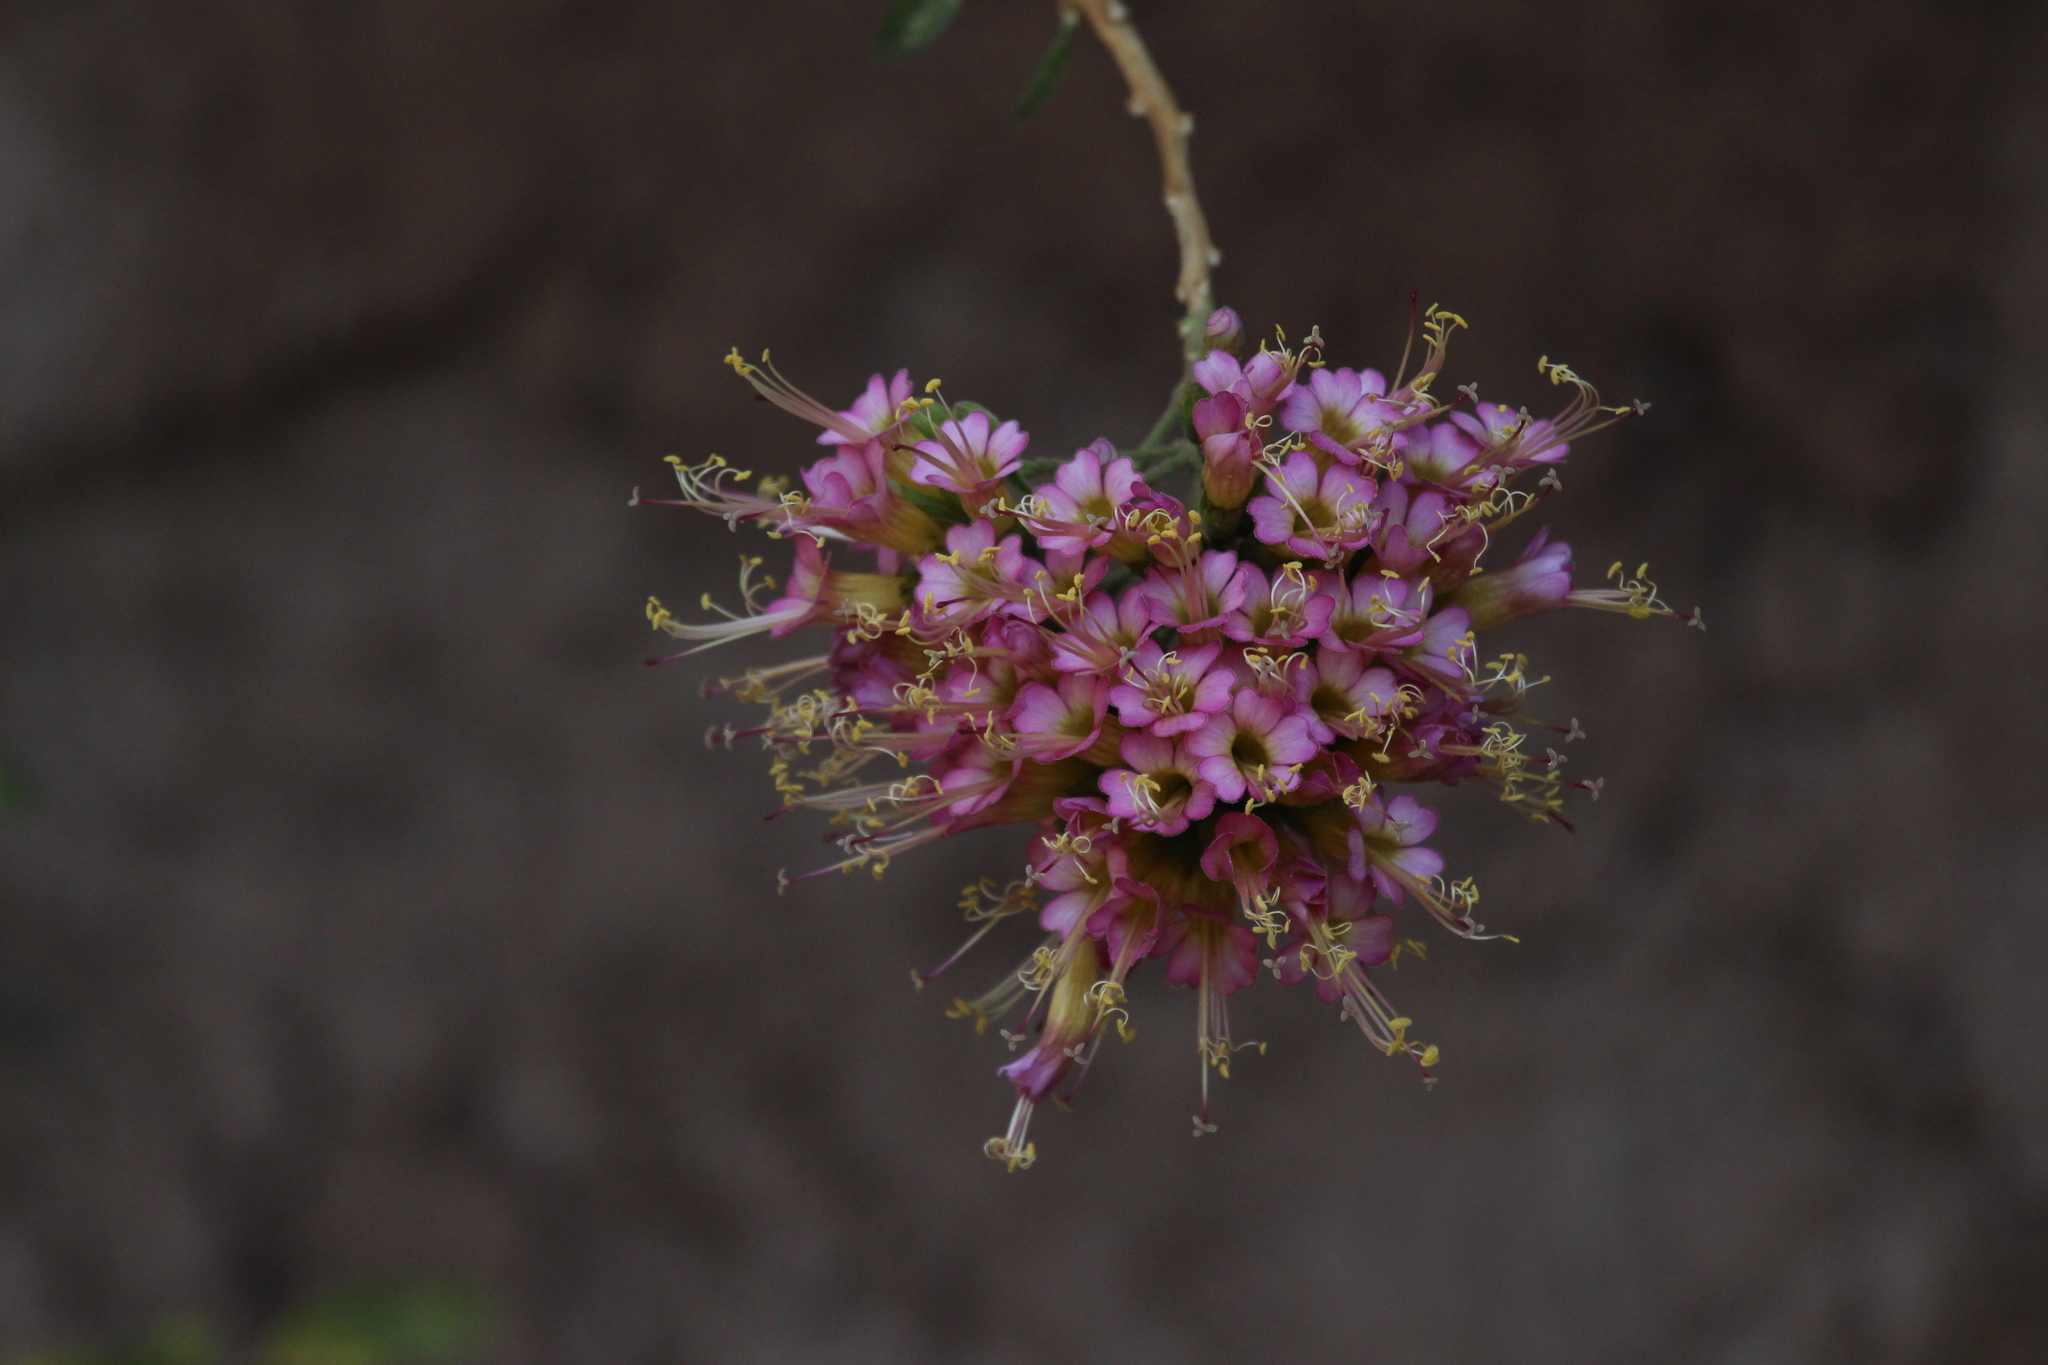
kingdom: Plantae
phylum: Tracheophyta
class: Magnoliopsida
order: Ericales
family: Polemoniaceae
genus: Cantua
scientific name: Cantua cuzcoensis
